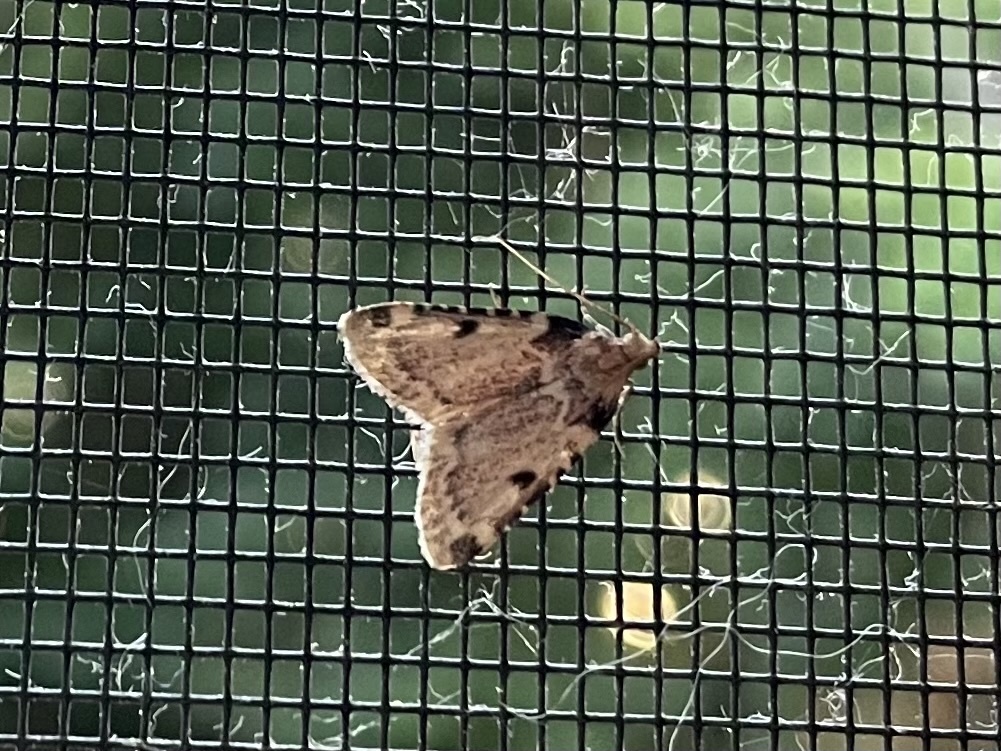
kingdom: Animalia
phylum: Arthropoda
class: Insecta
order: Lepidoptera
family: Pyralidae
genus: Aglossa
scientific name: Aglossa costiferalis
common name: Calico pyralid moth
